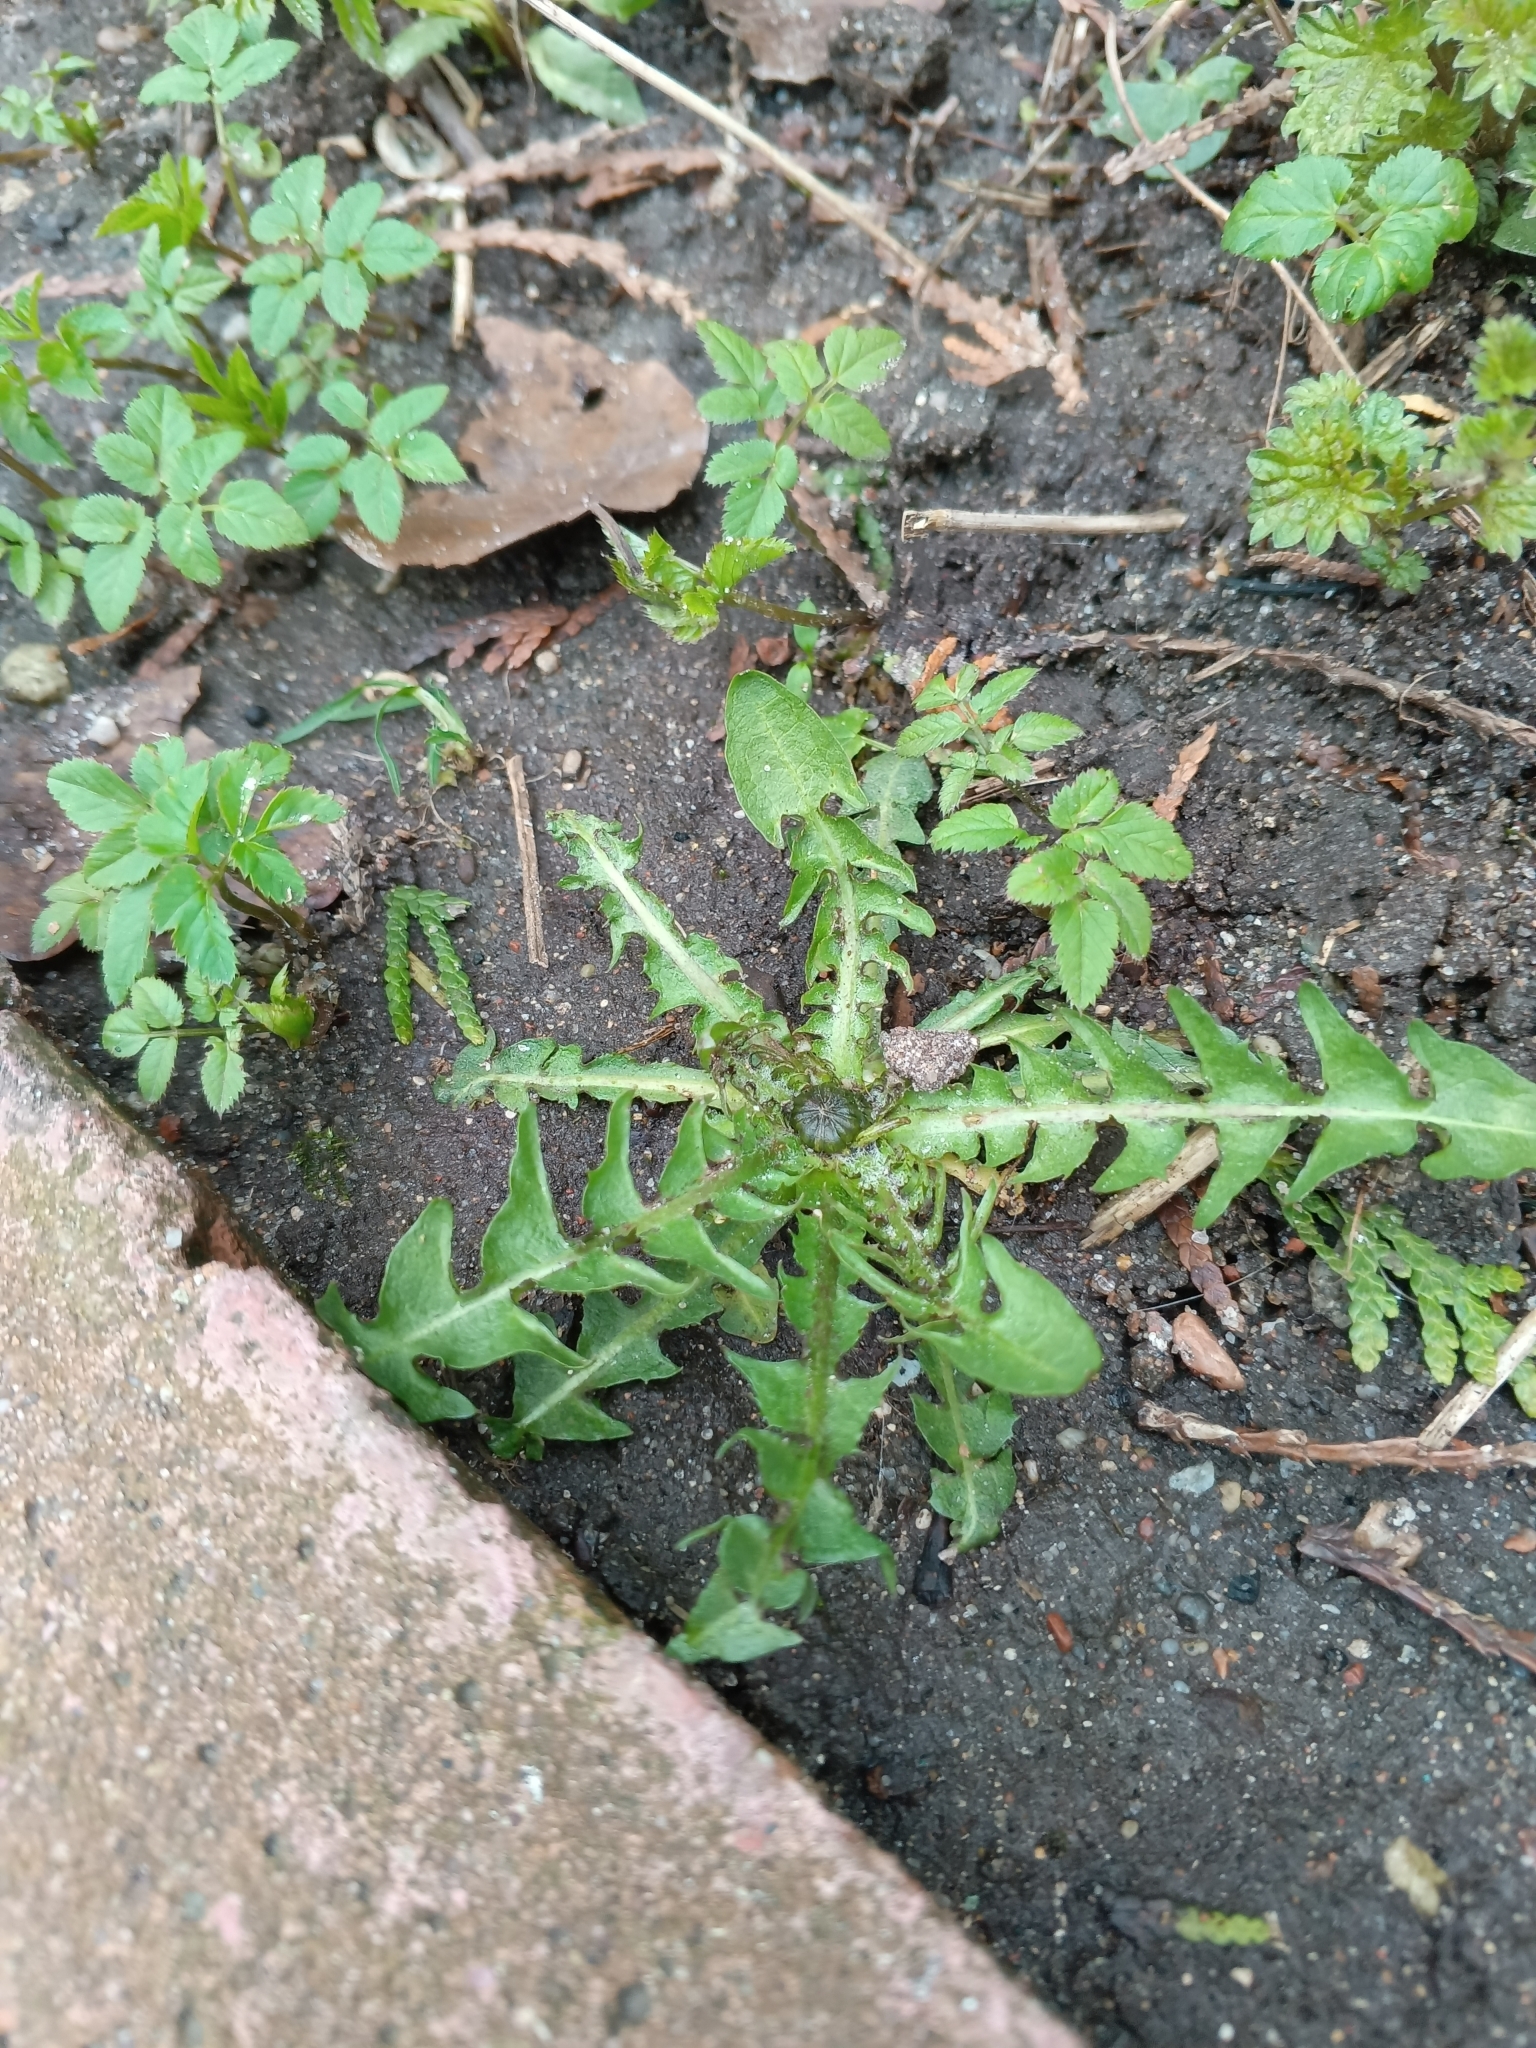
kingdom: Plantae
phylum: Tracheophyta
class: Magnoliopsida
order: Asterales
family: Asteraceae
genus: Taraxacum
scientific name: Taraxacum officinale
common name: Common dandelion
